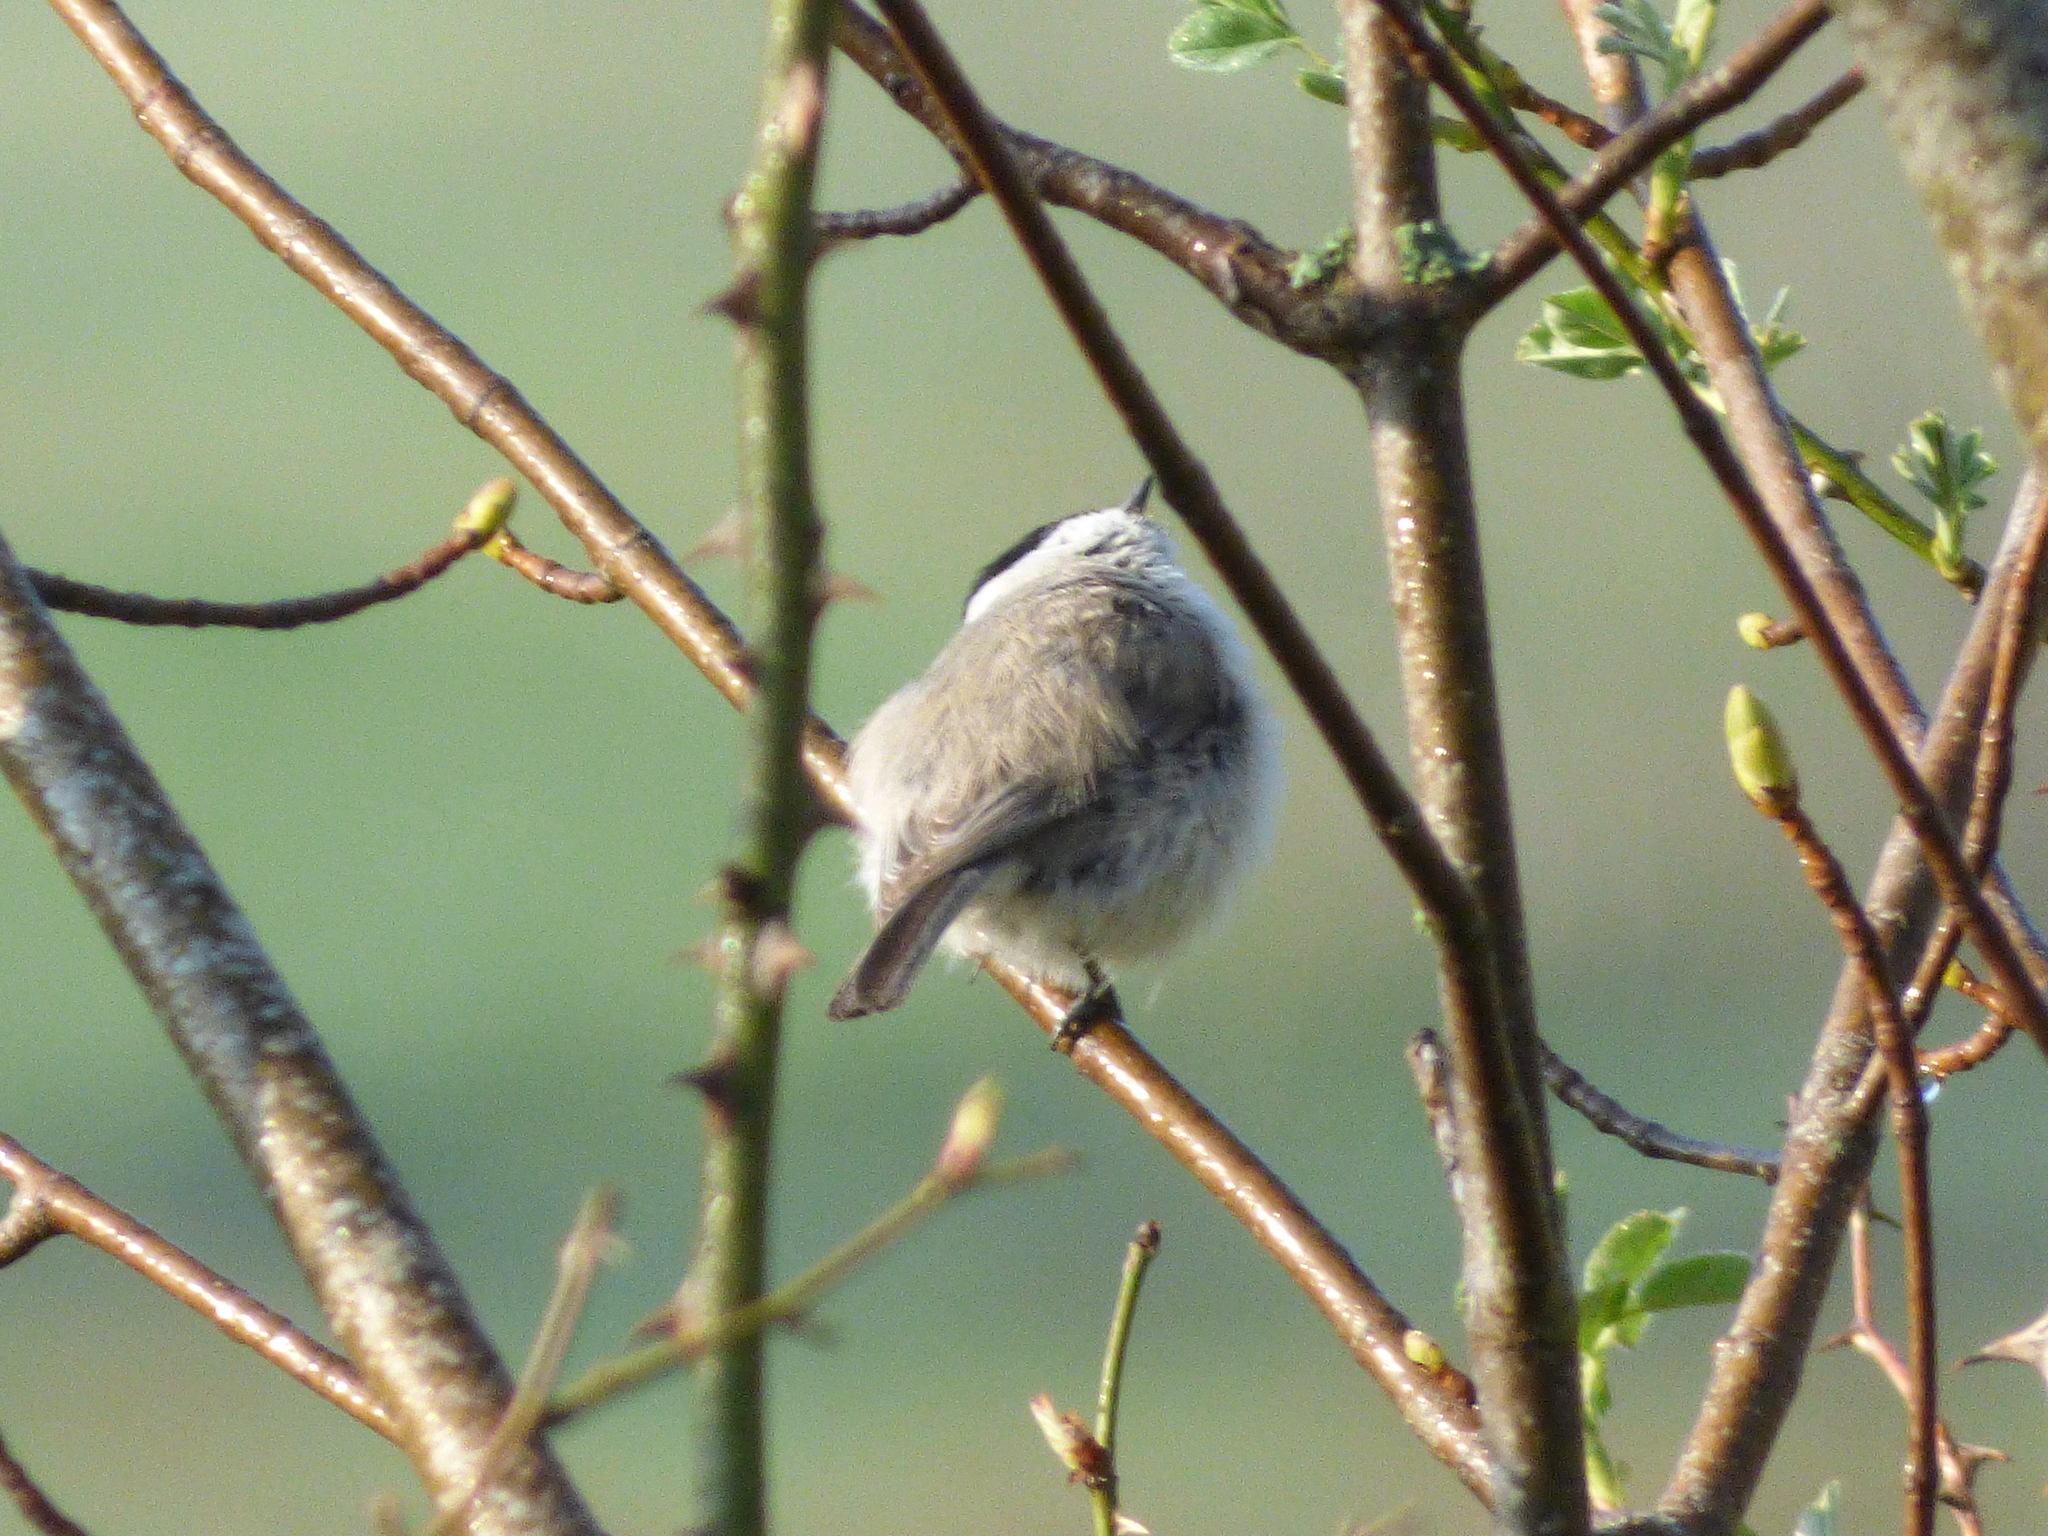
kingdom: Animalia
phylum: Chordata
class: Aves
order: Passeriformes
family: Paridae
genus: Poecile
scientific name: Poecile palustris
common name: Marsh tit
